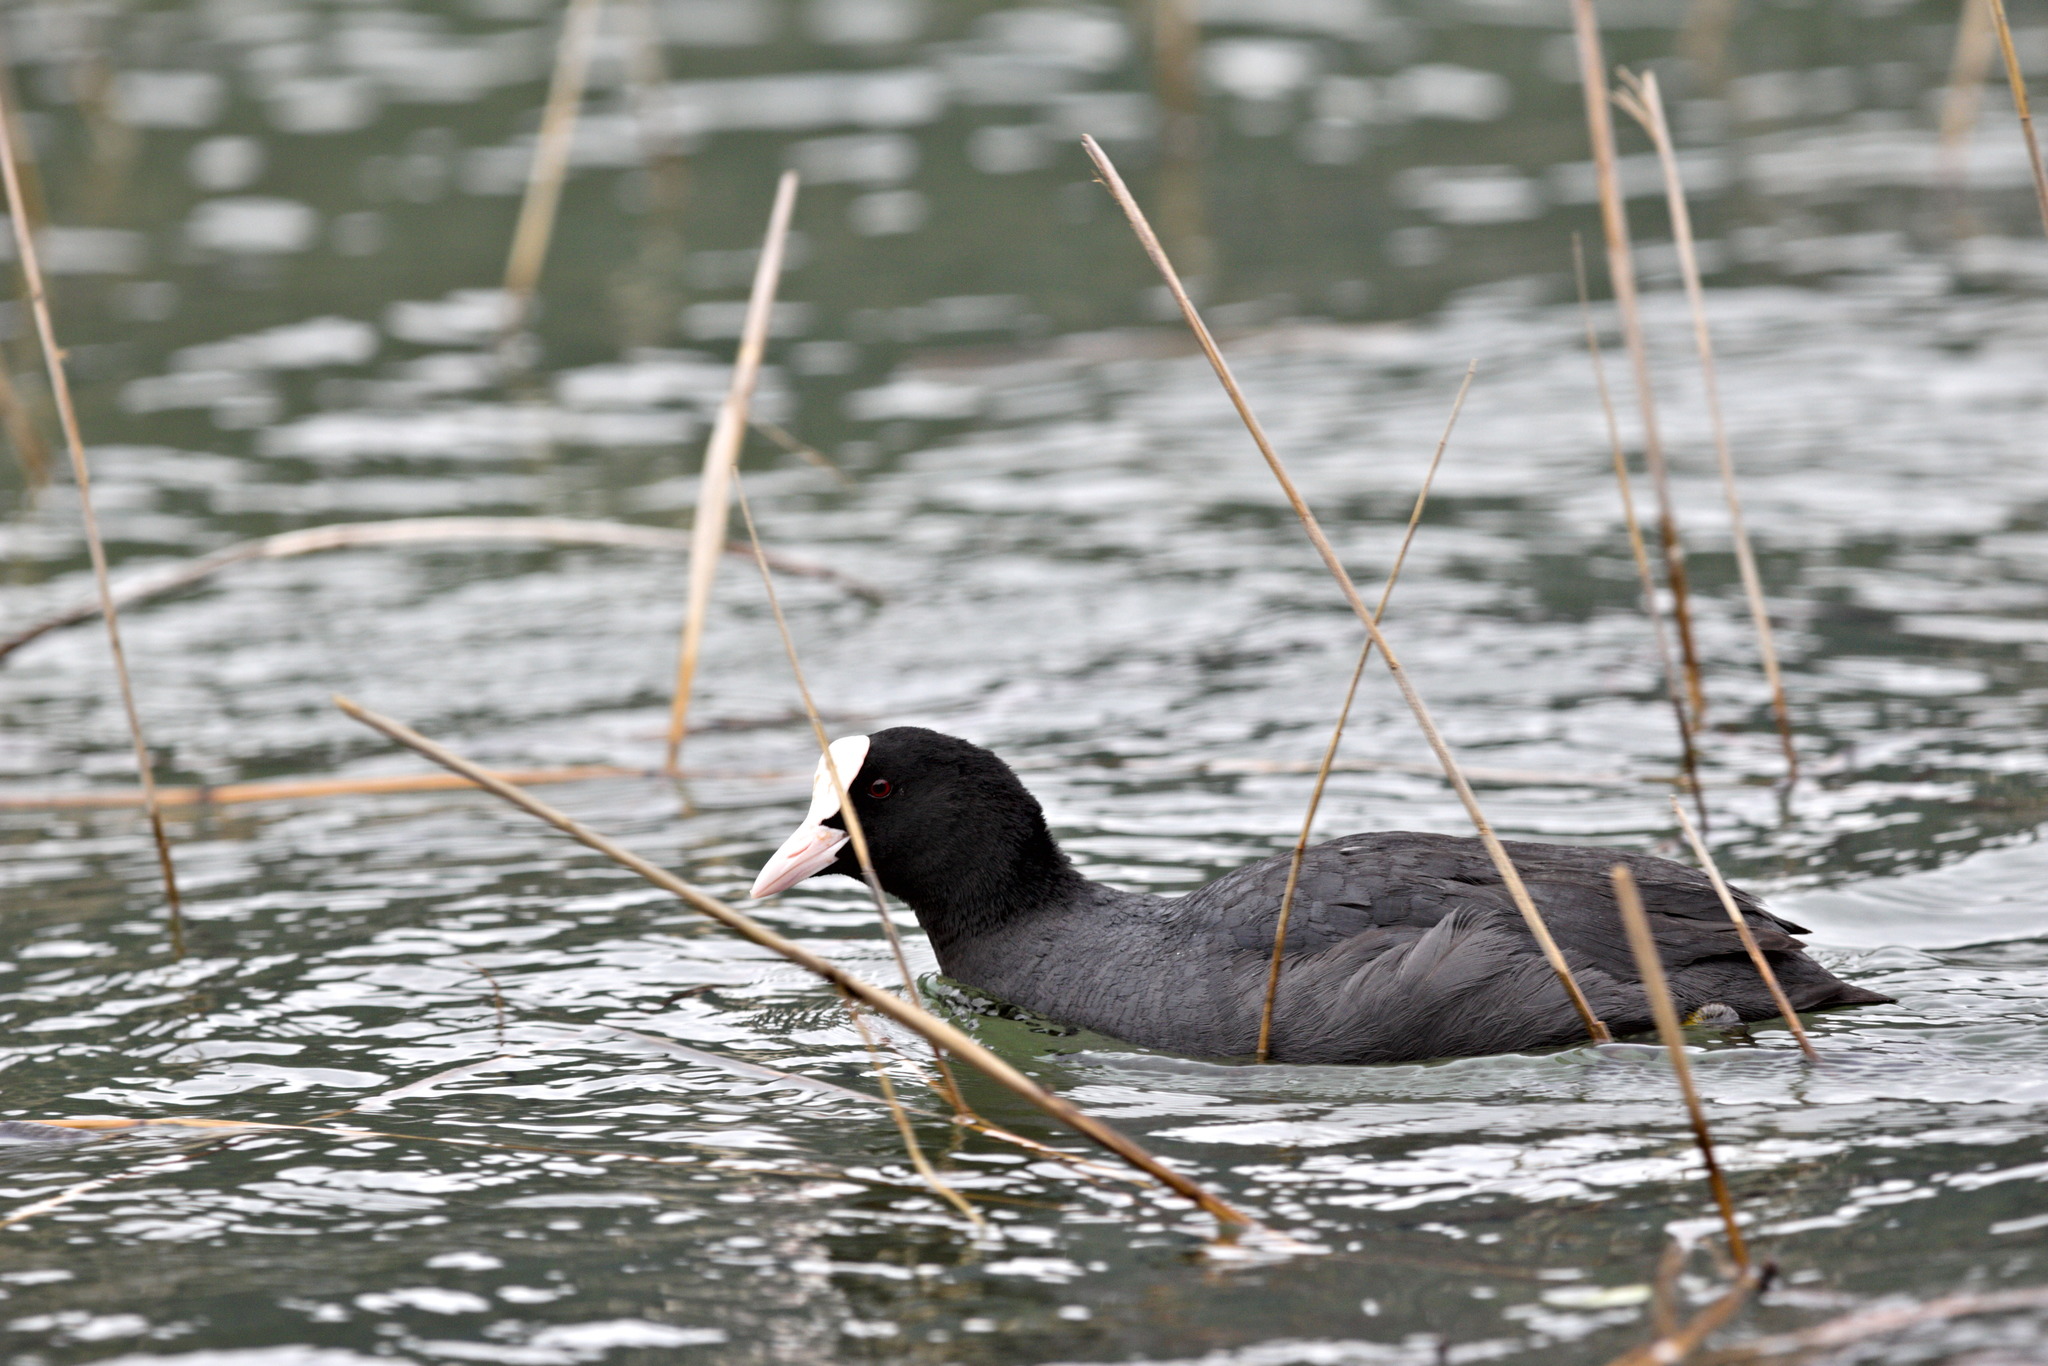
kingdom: Animalia
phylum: Chordata
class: Aves
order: Gruiformes
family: Rallidae
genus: Fulica
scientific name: Fulica atra
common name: Eurasian coot
